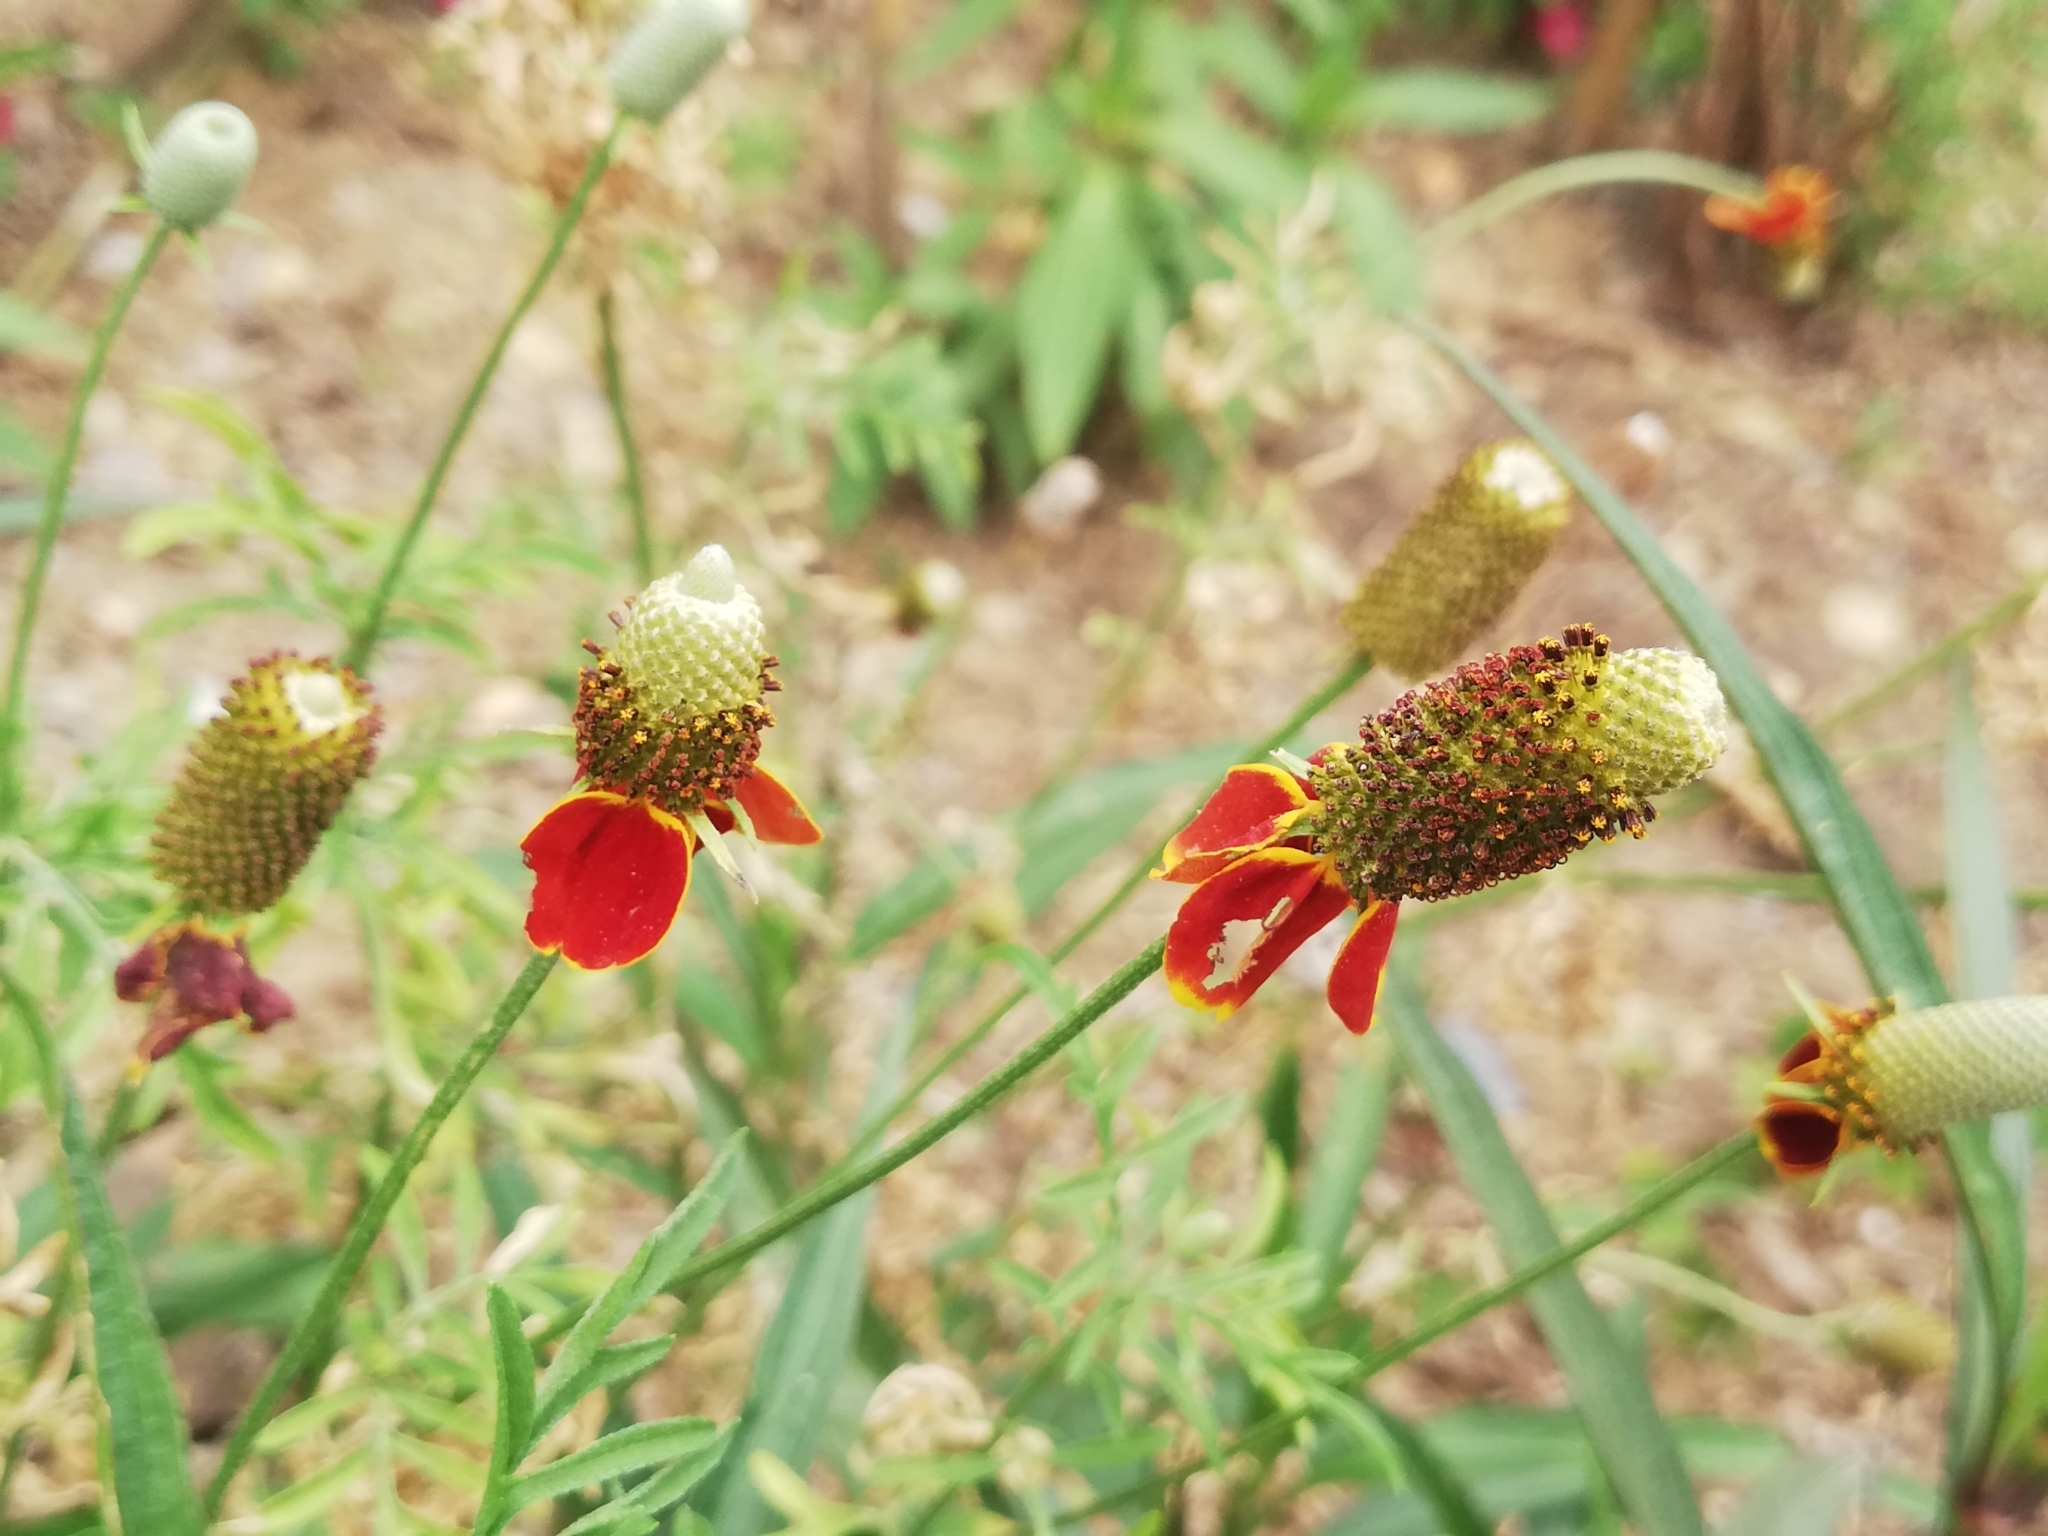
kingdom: Plantae
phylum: Tracheophyta
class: Magnoliopsida
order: Asterales
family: Asteraceae
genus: Ratibida
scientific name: Ratibida columnifera
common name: Prairie coneflower
